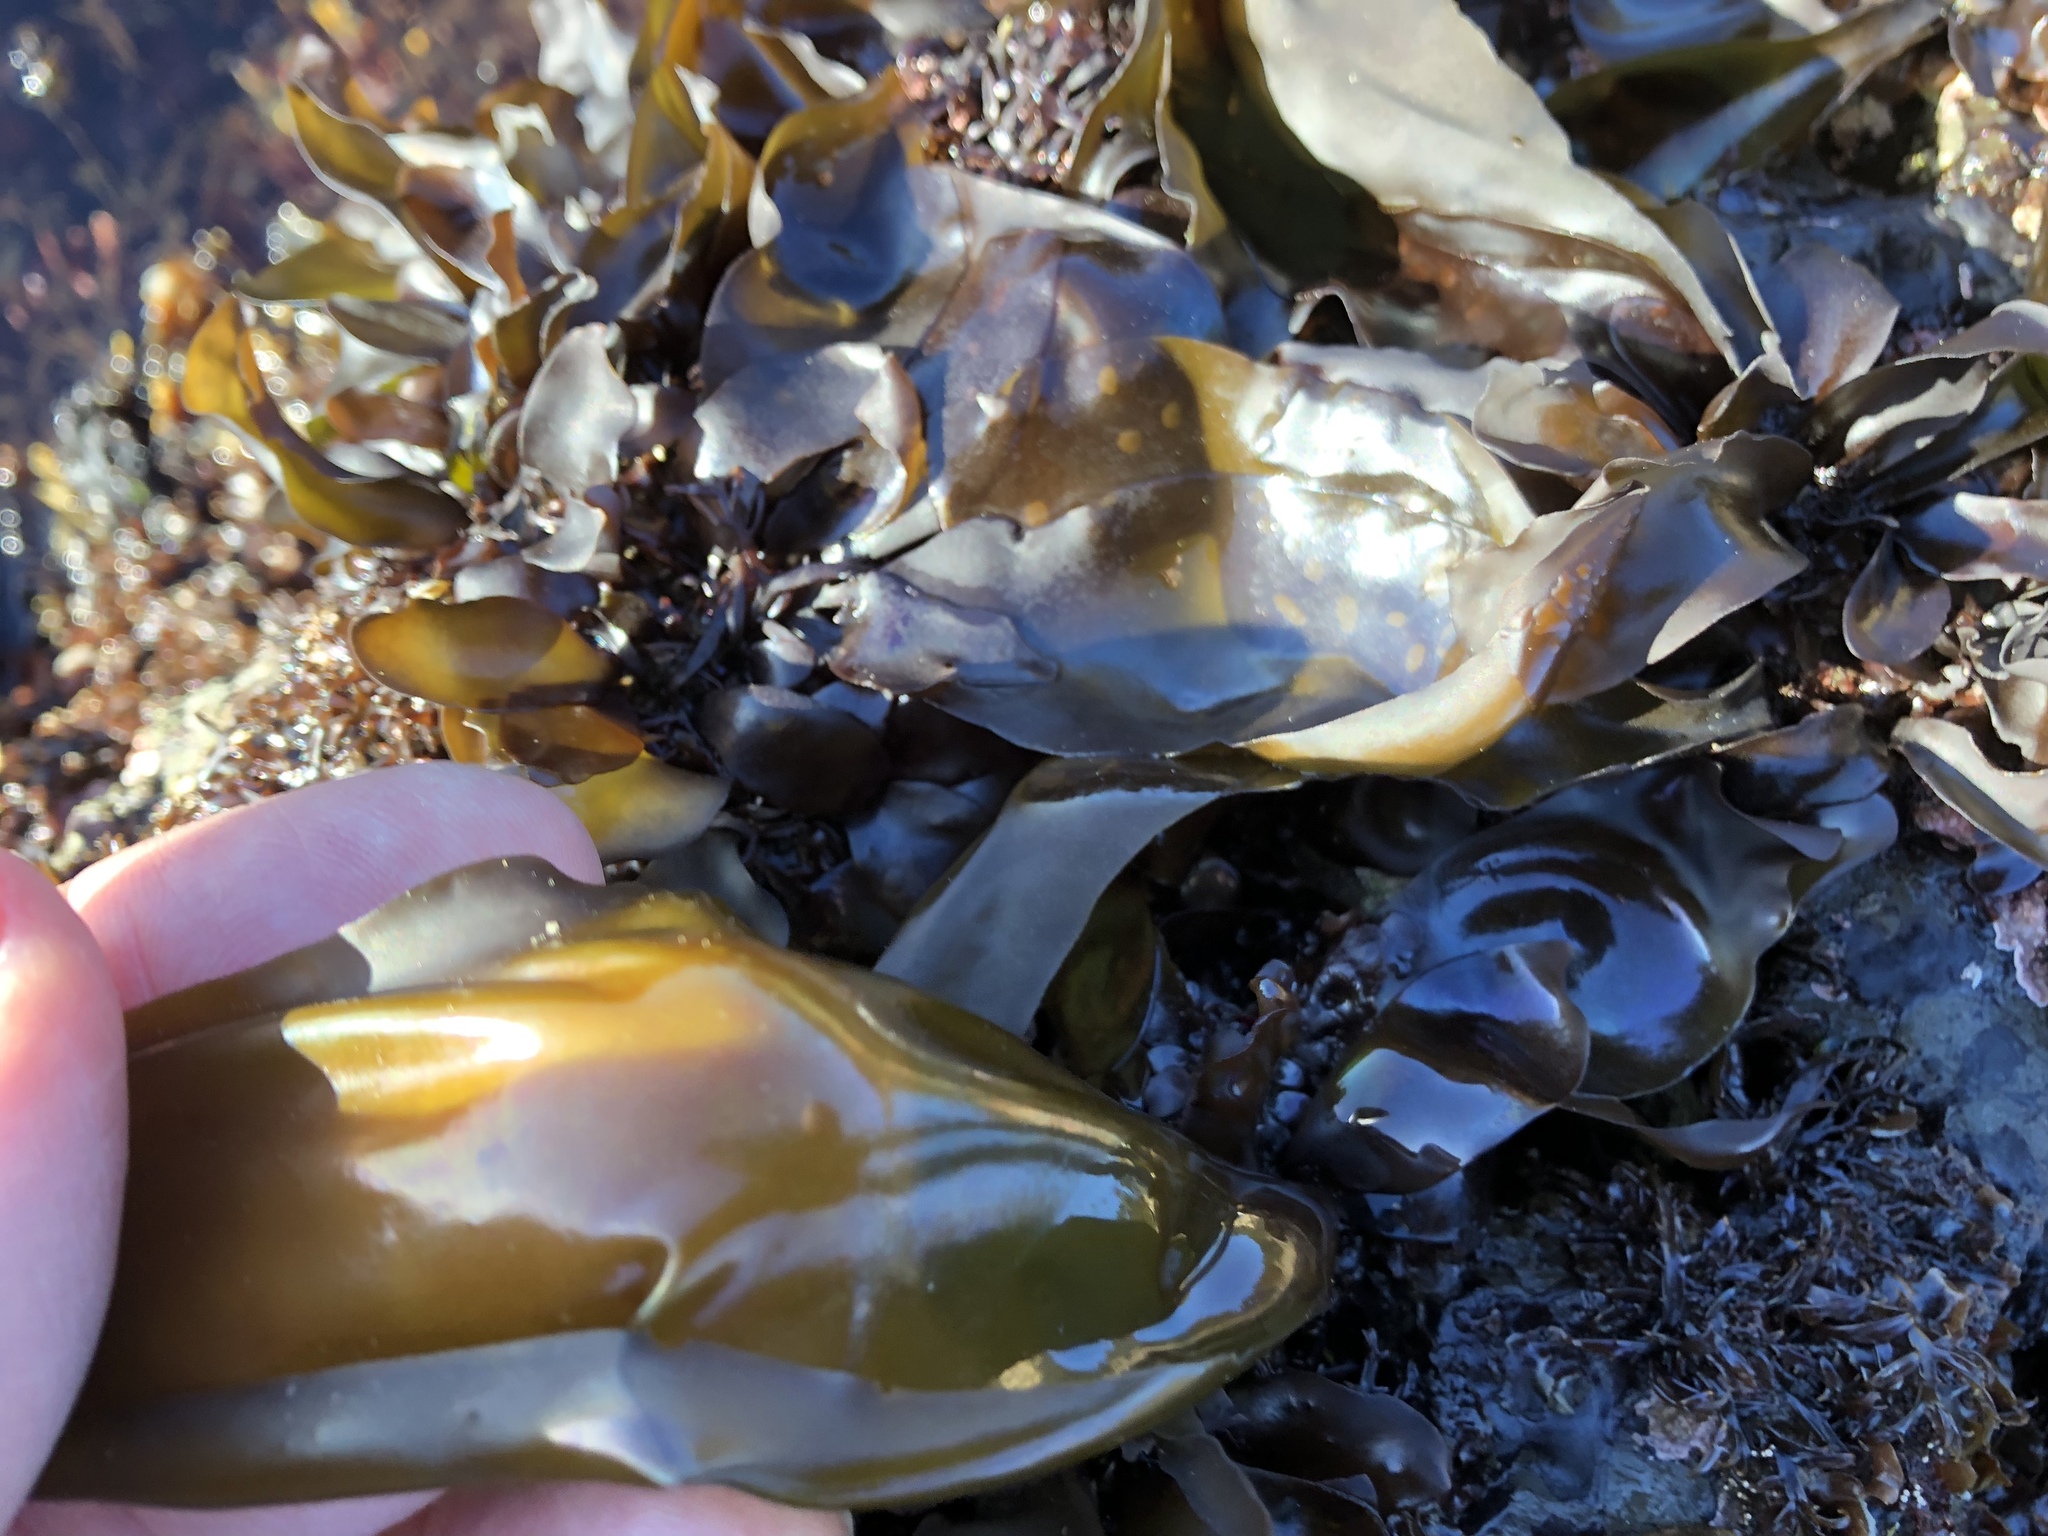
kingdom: Plantae
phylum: Rhodophyta
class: Florideophyceae
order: Gigartinales
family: Gigartinaceae
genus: Mazzaella
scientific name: Mazzaella flaccida
